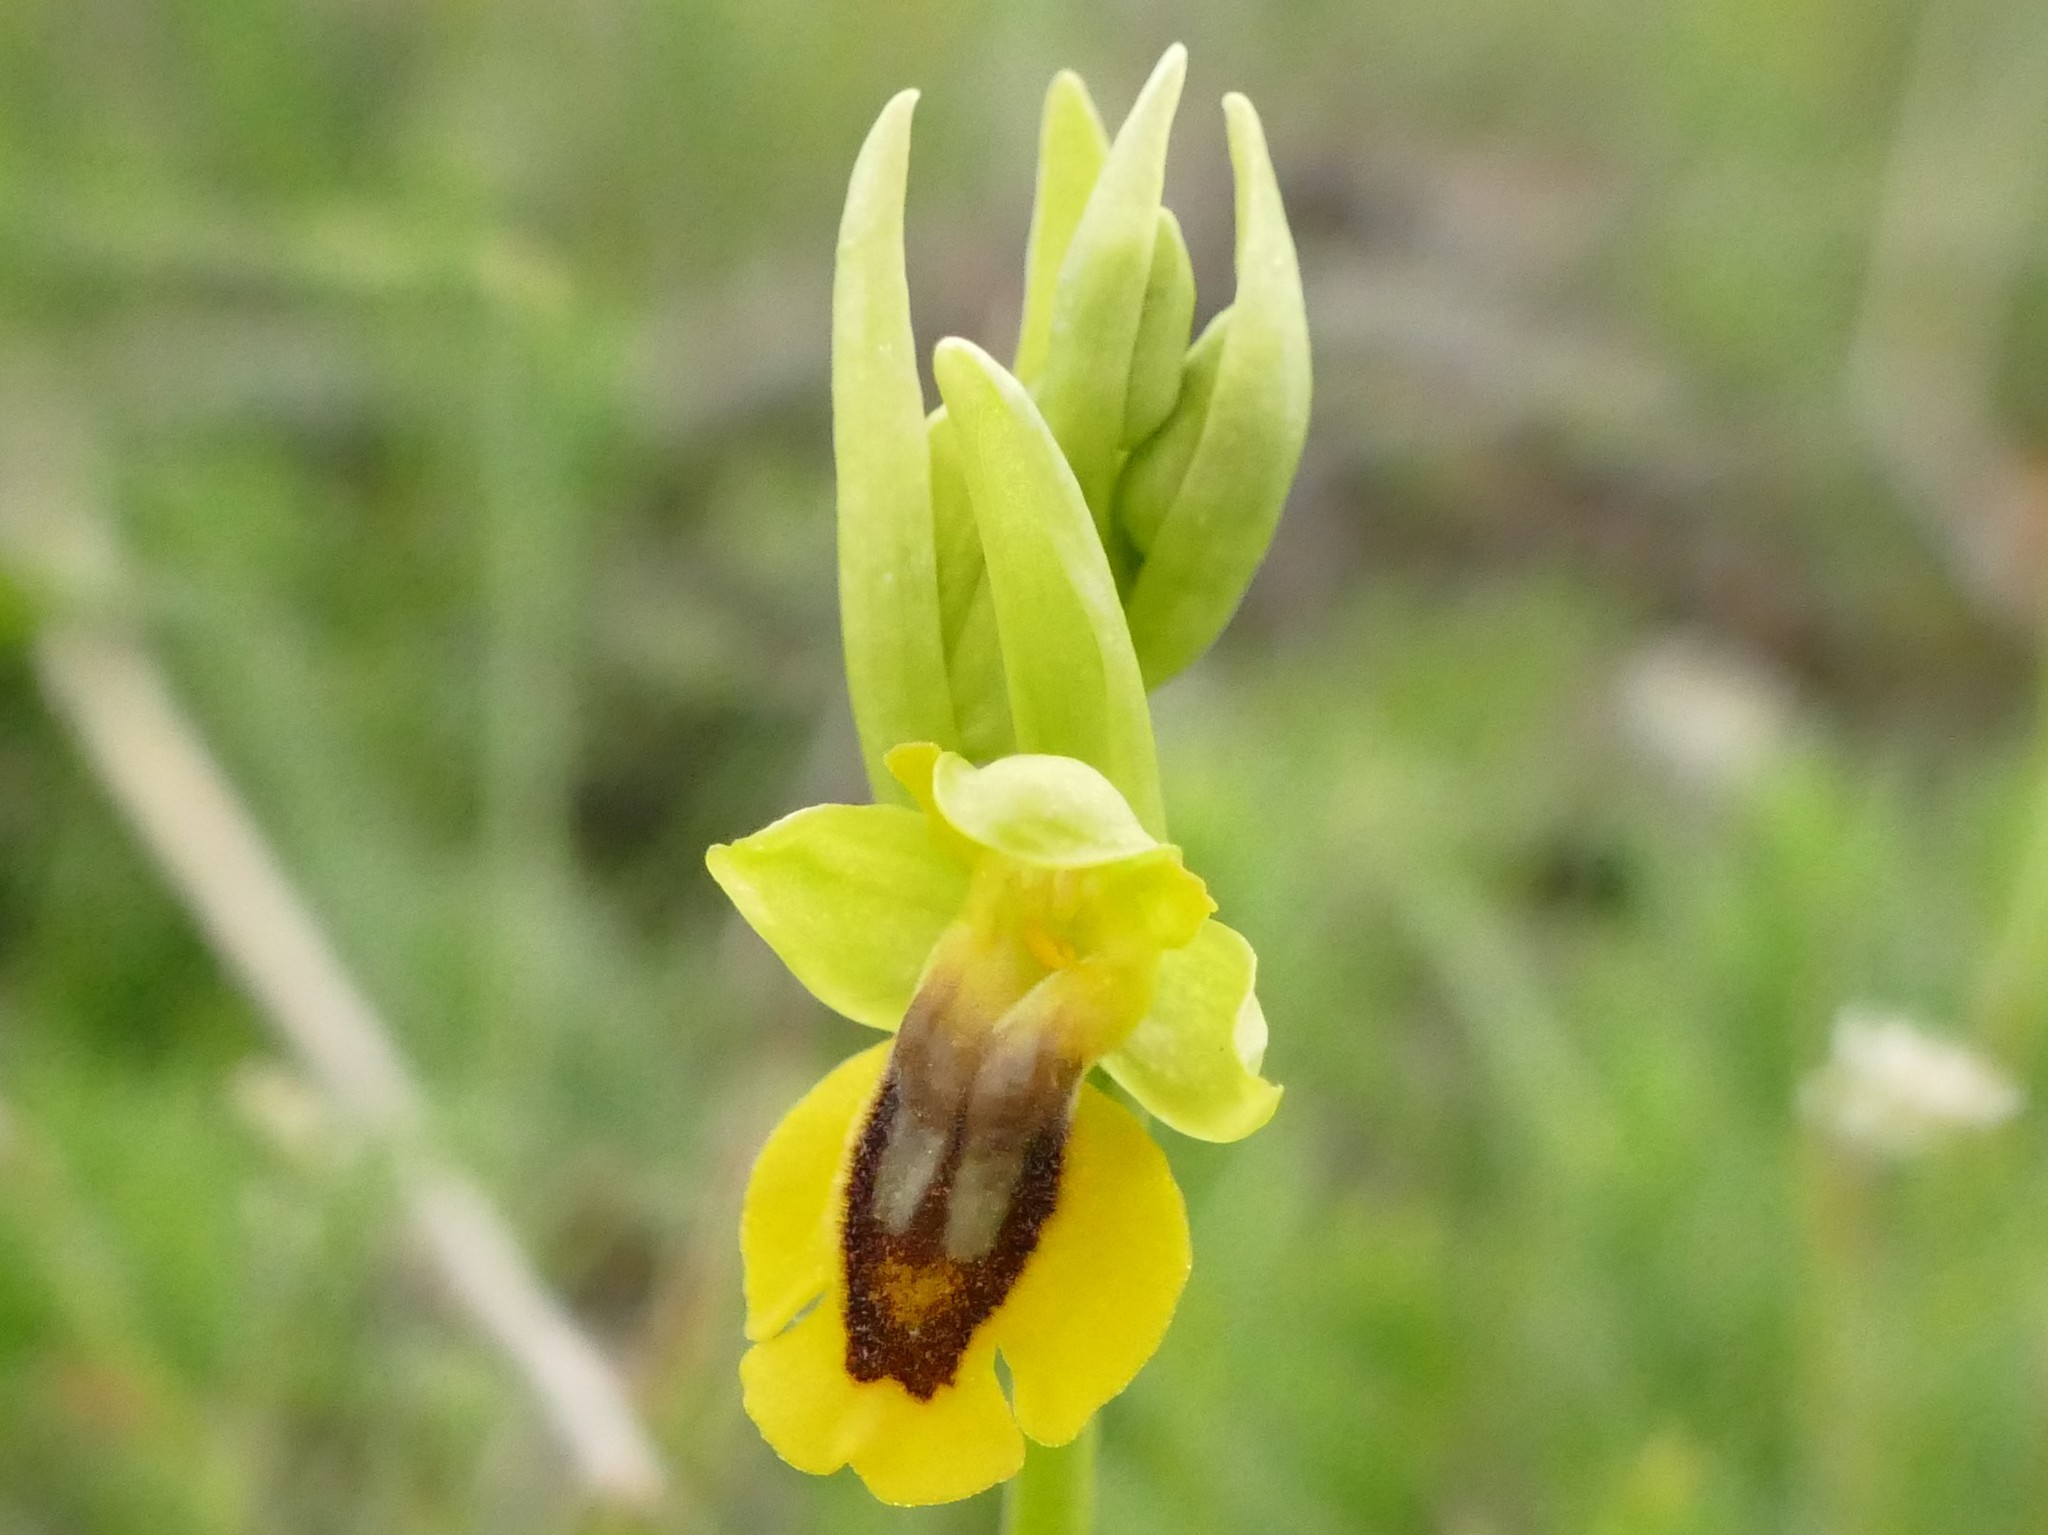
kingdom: Plantae
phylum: Tracheophyta
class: Liliopsida
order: Asparagales
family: Orchidaceae
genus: Ophrys
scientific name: Ophrys lutea
